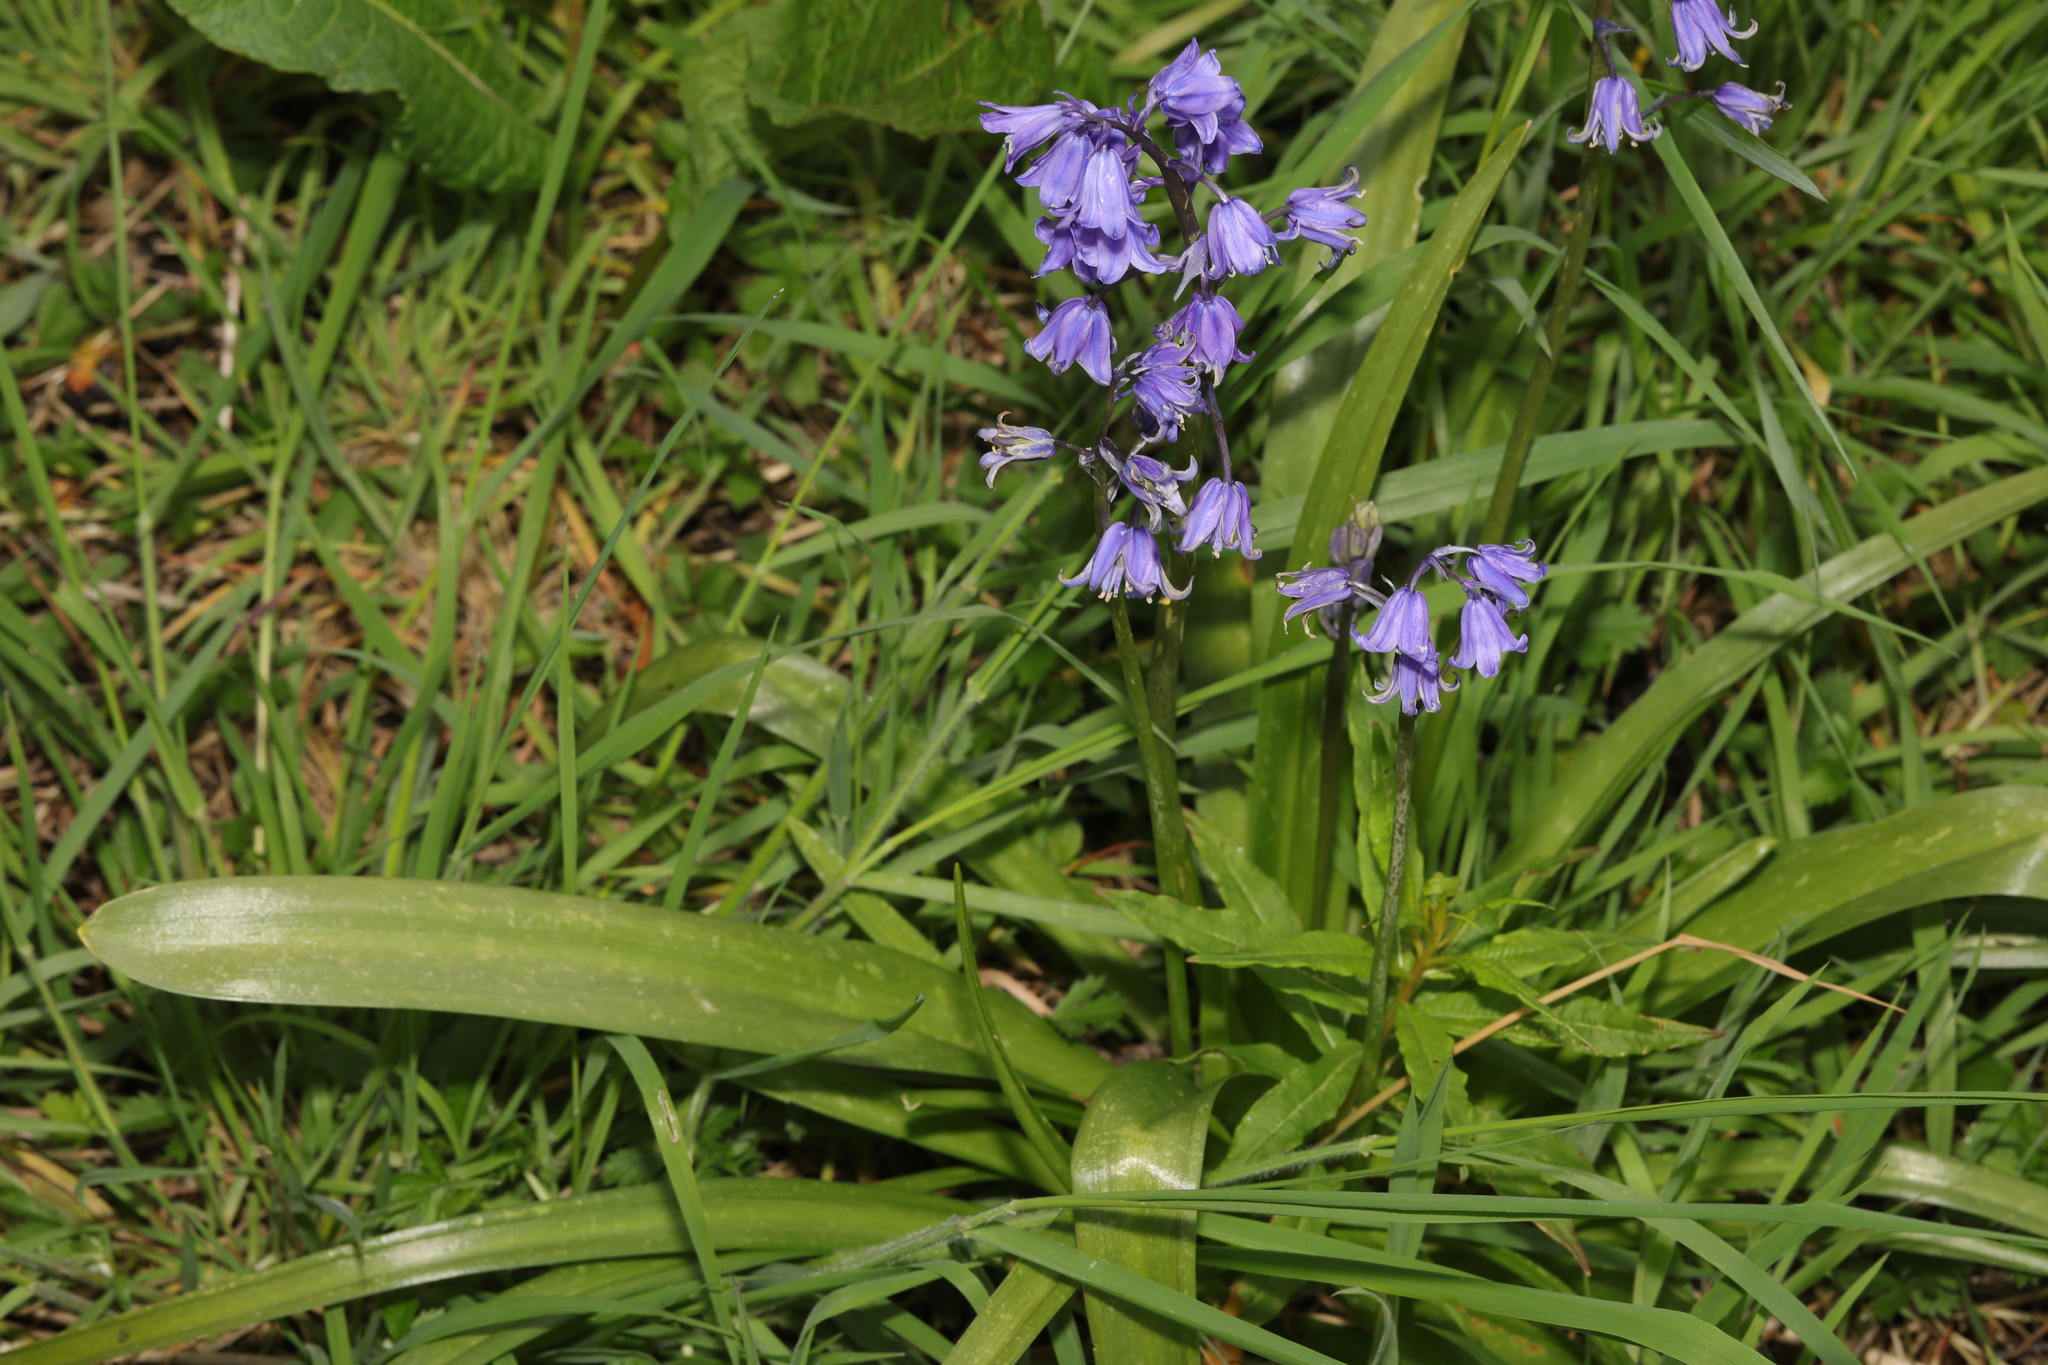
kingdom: Plantae
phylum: Tracheophyta
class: Liliopsida
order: Asparagales
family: Asparagaceae
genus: Hyacinthoides
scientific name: Hyacinthoides hispanica
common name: Spanish bluebell
